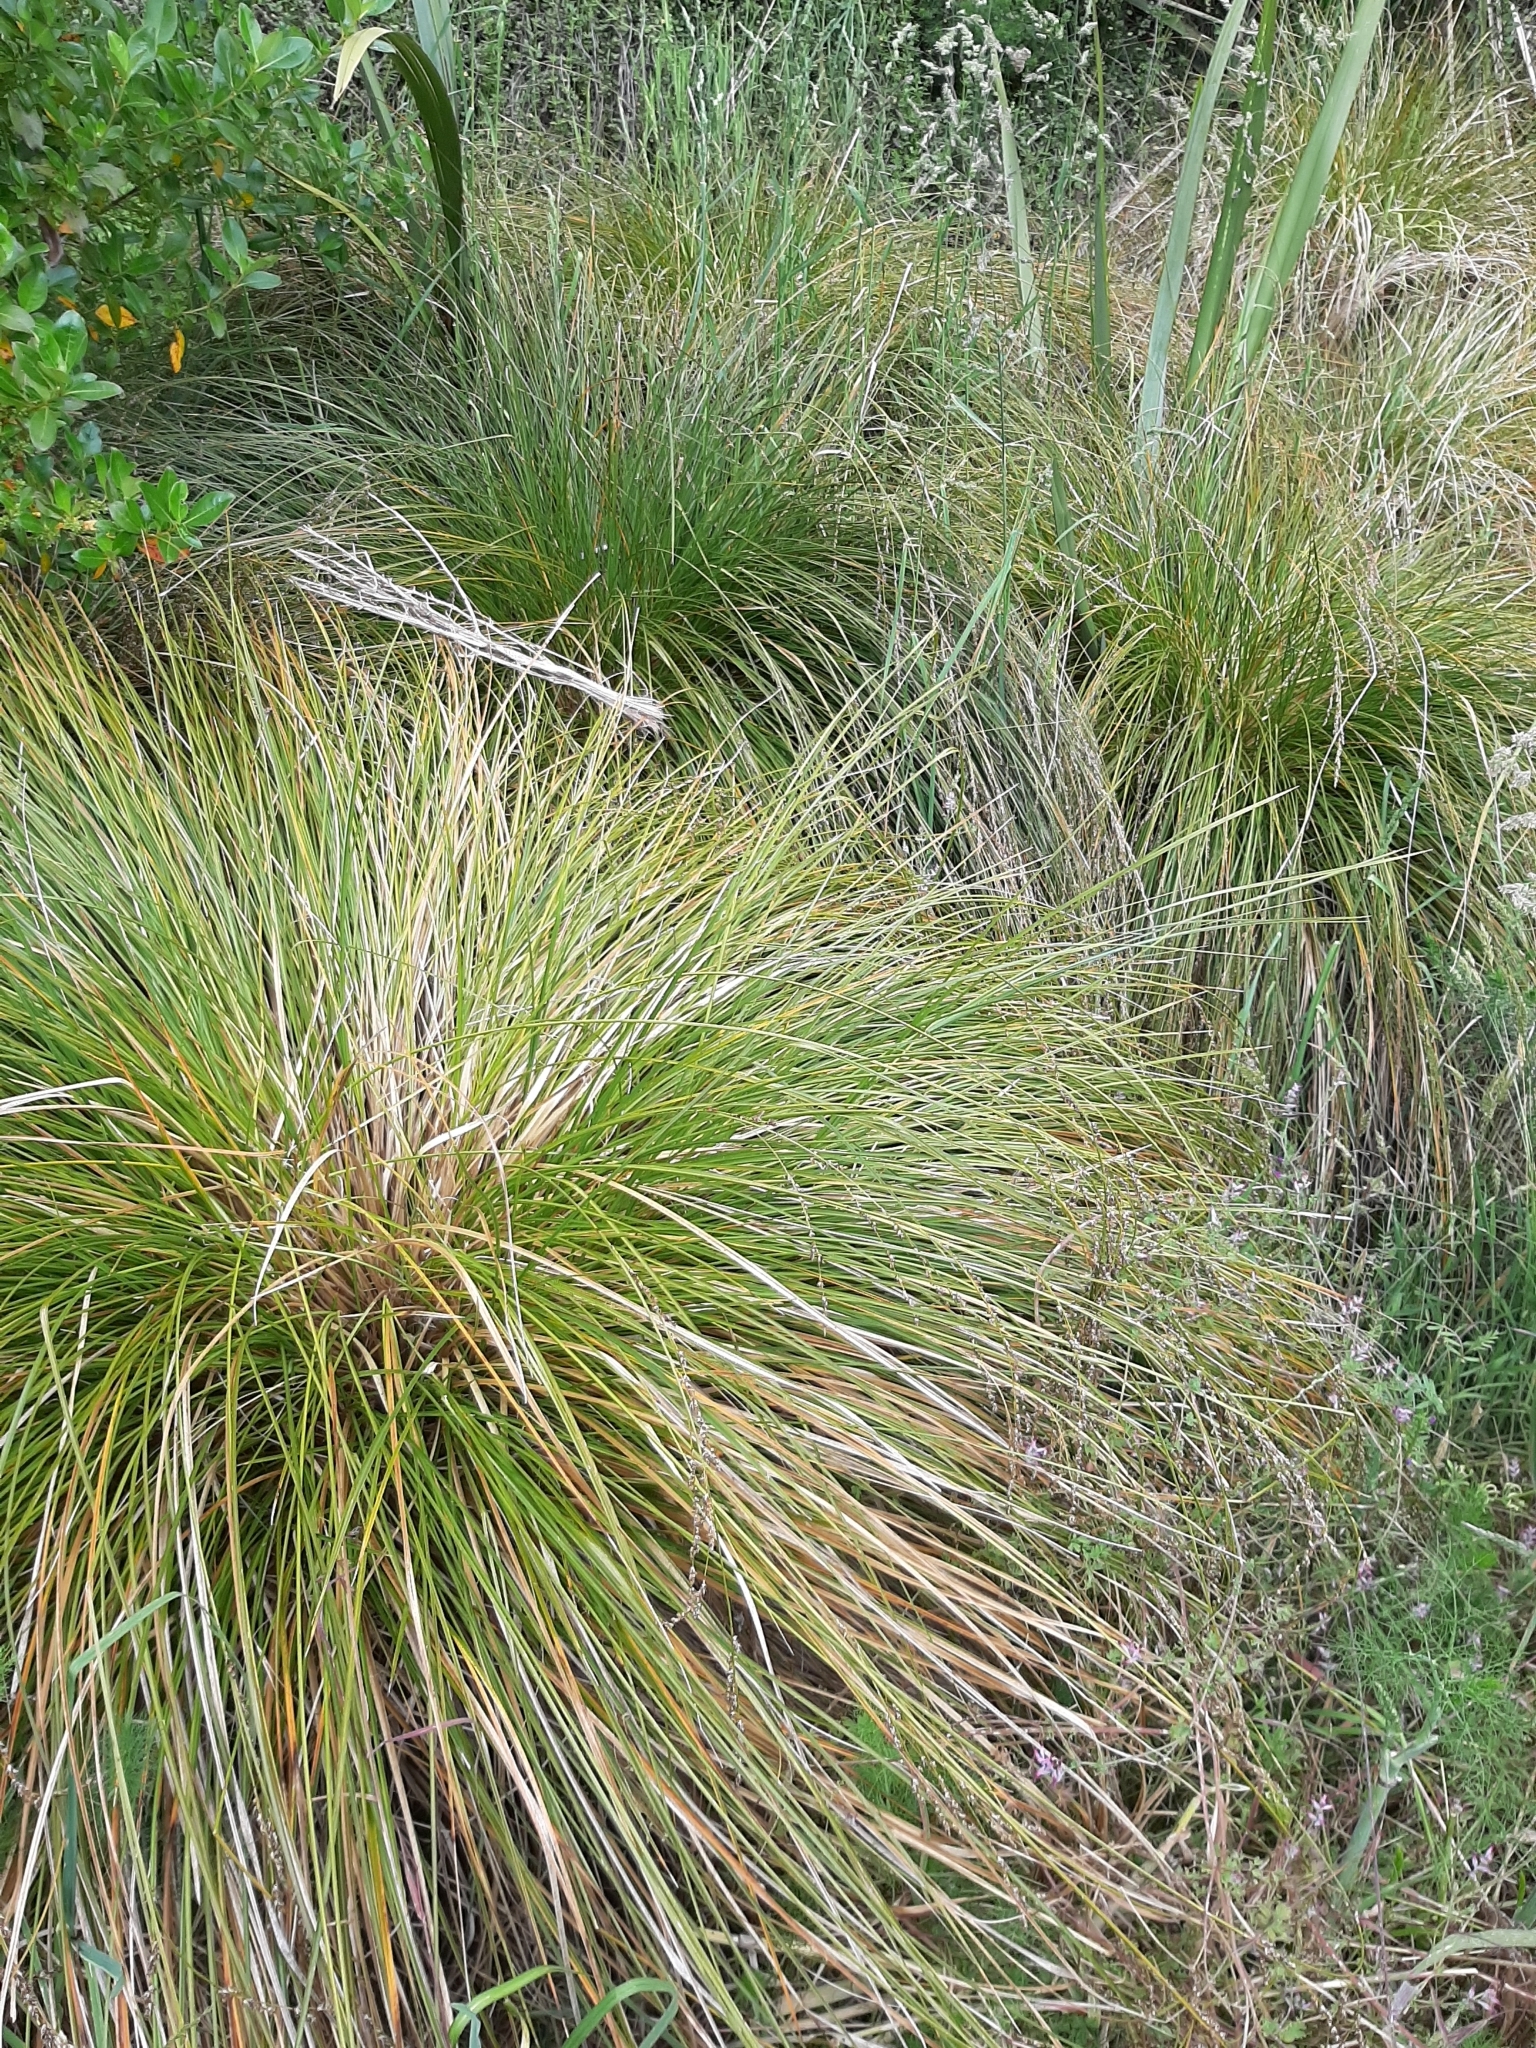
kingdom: Plantae
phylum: Tracheophyta
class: Liliopsida
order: Poales
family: Cyperaceae
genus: Carex
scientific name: Carex secta
